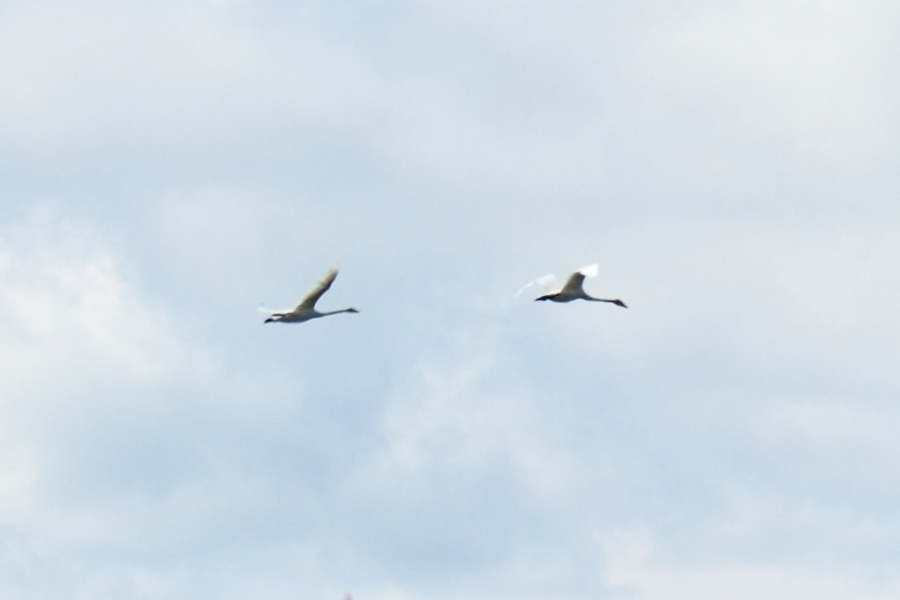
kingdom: Animalia
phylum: Chordata
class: Aves
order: Anseriformes
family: Anatidae
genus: Cygnus
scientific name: Cygnus cygnus
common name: Whooper swan
